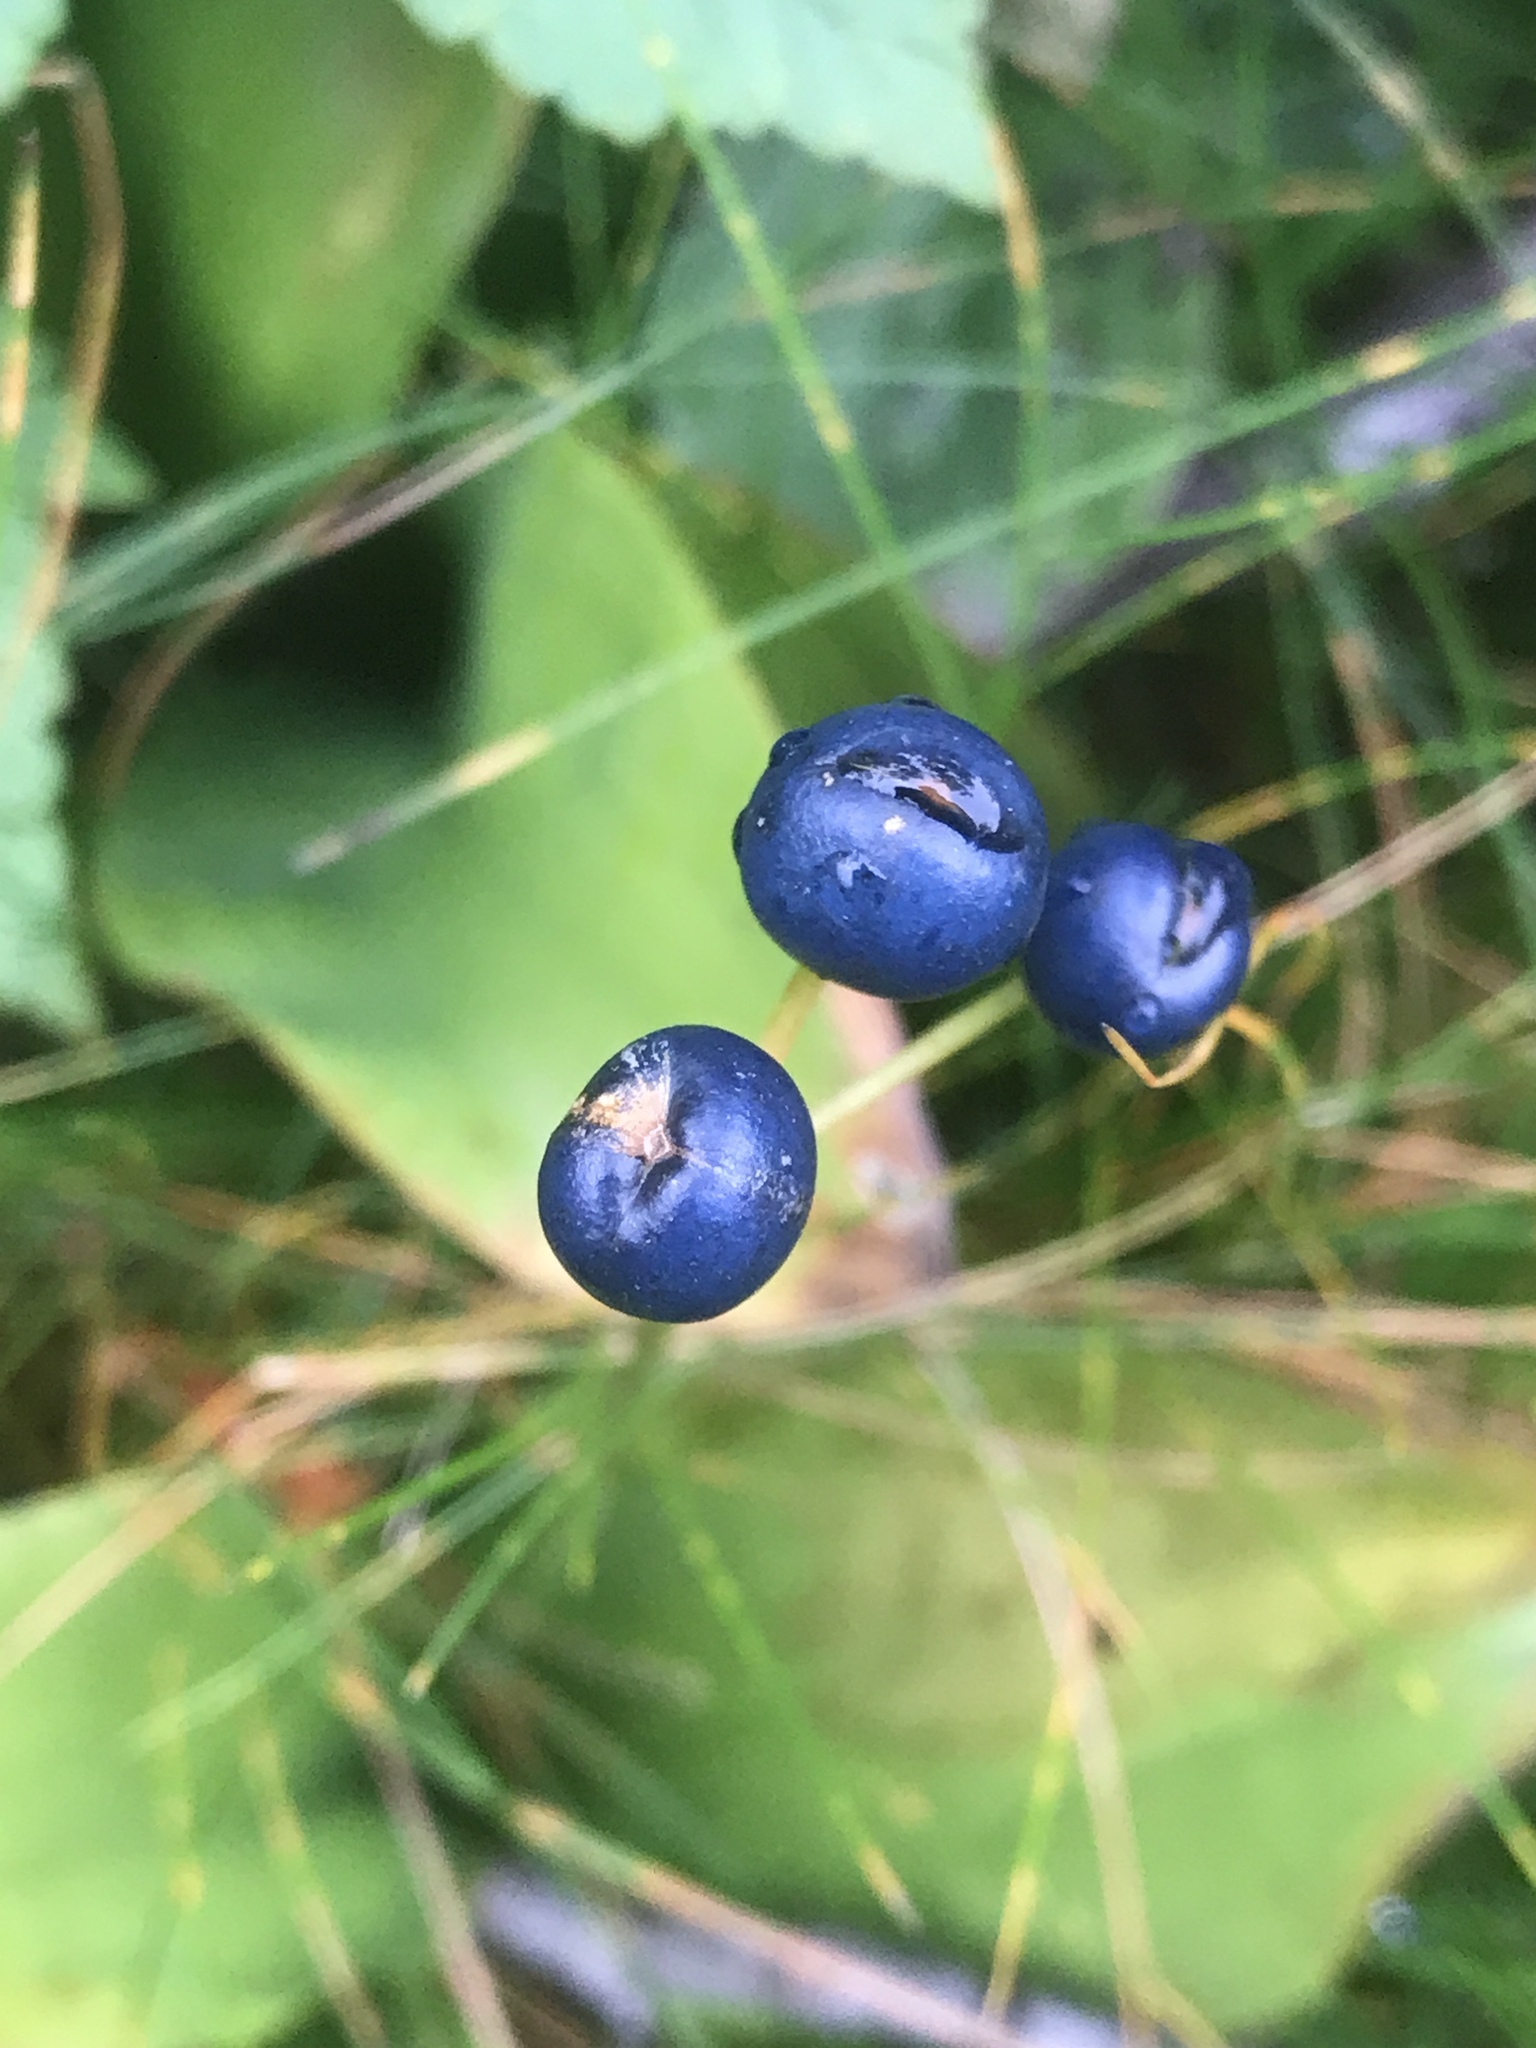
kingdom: Plantae
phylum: Tracheophyta
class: Liliopsida
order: Liliales
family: Liliaceae
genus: Clintonia
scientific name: Clintonia borealis
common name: Yellow clintonia
